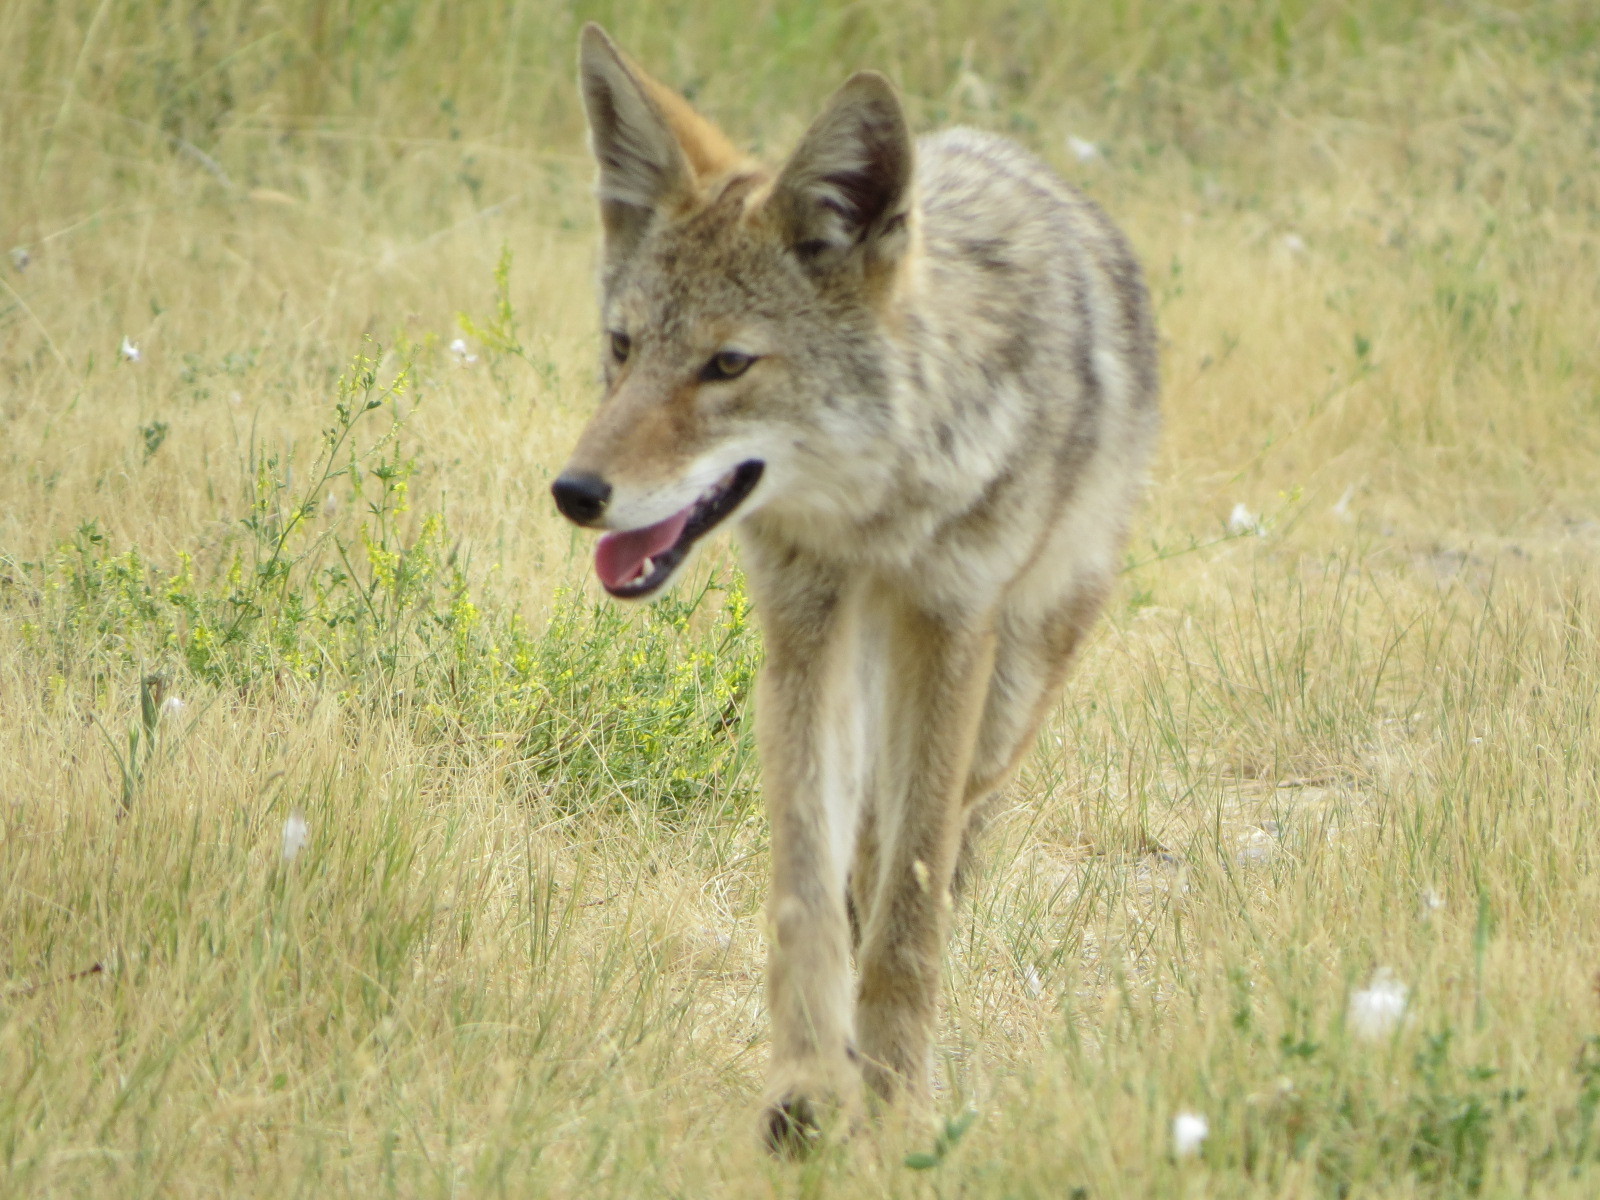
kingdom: Animalia
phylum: Chordata
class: Mammalia
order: Carnivora
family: Canidae
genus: Canis
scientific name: Canis latrans
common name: Coyote
